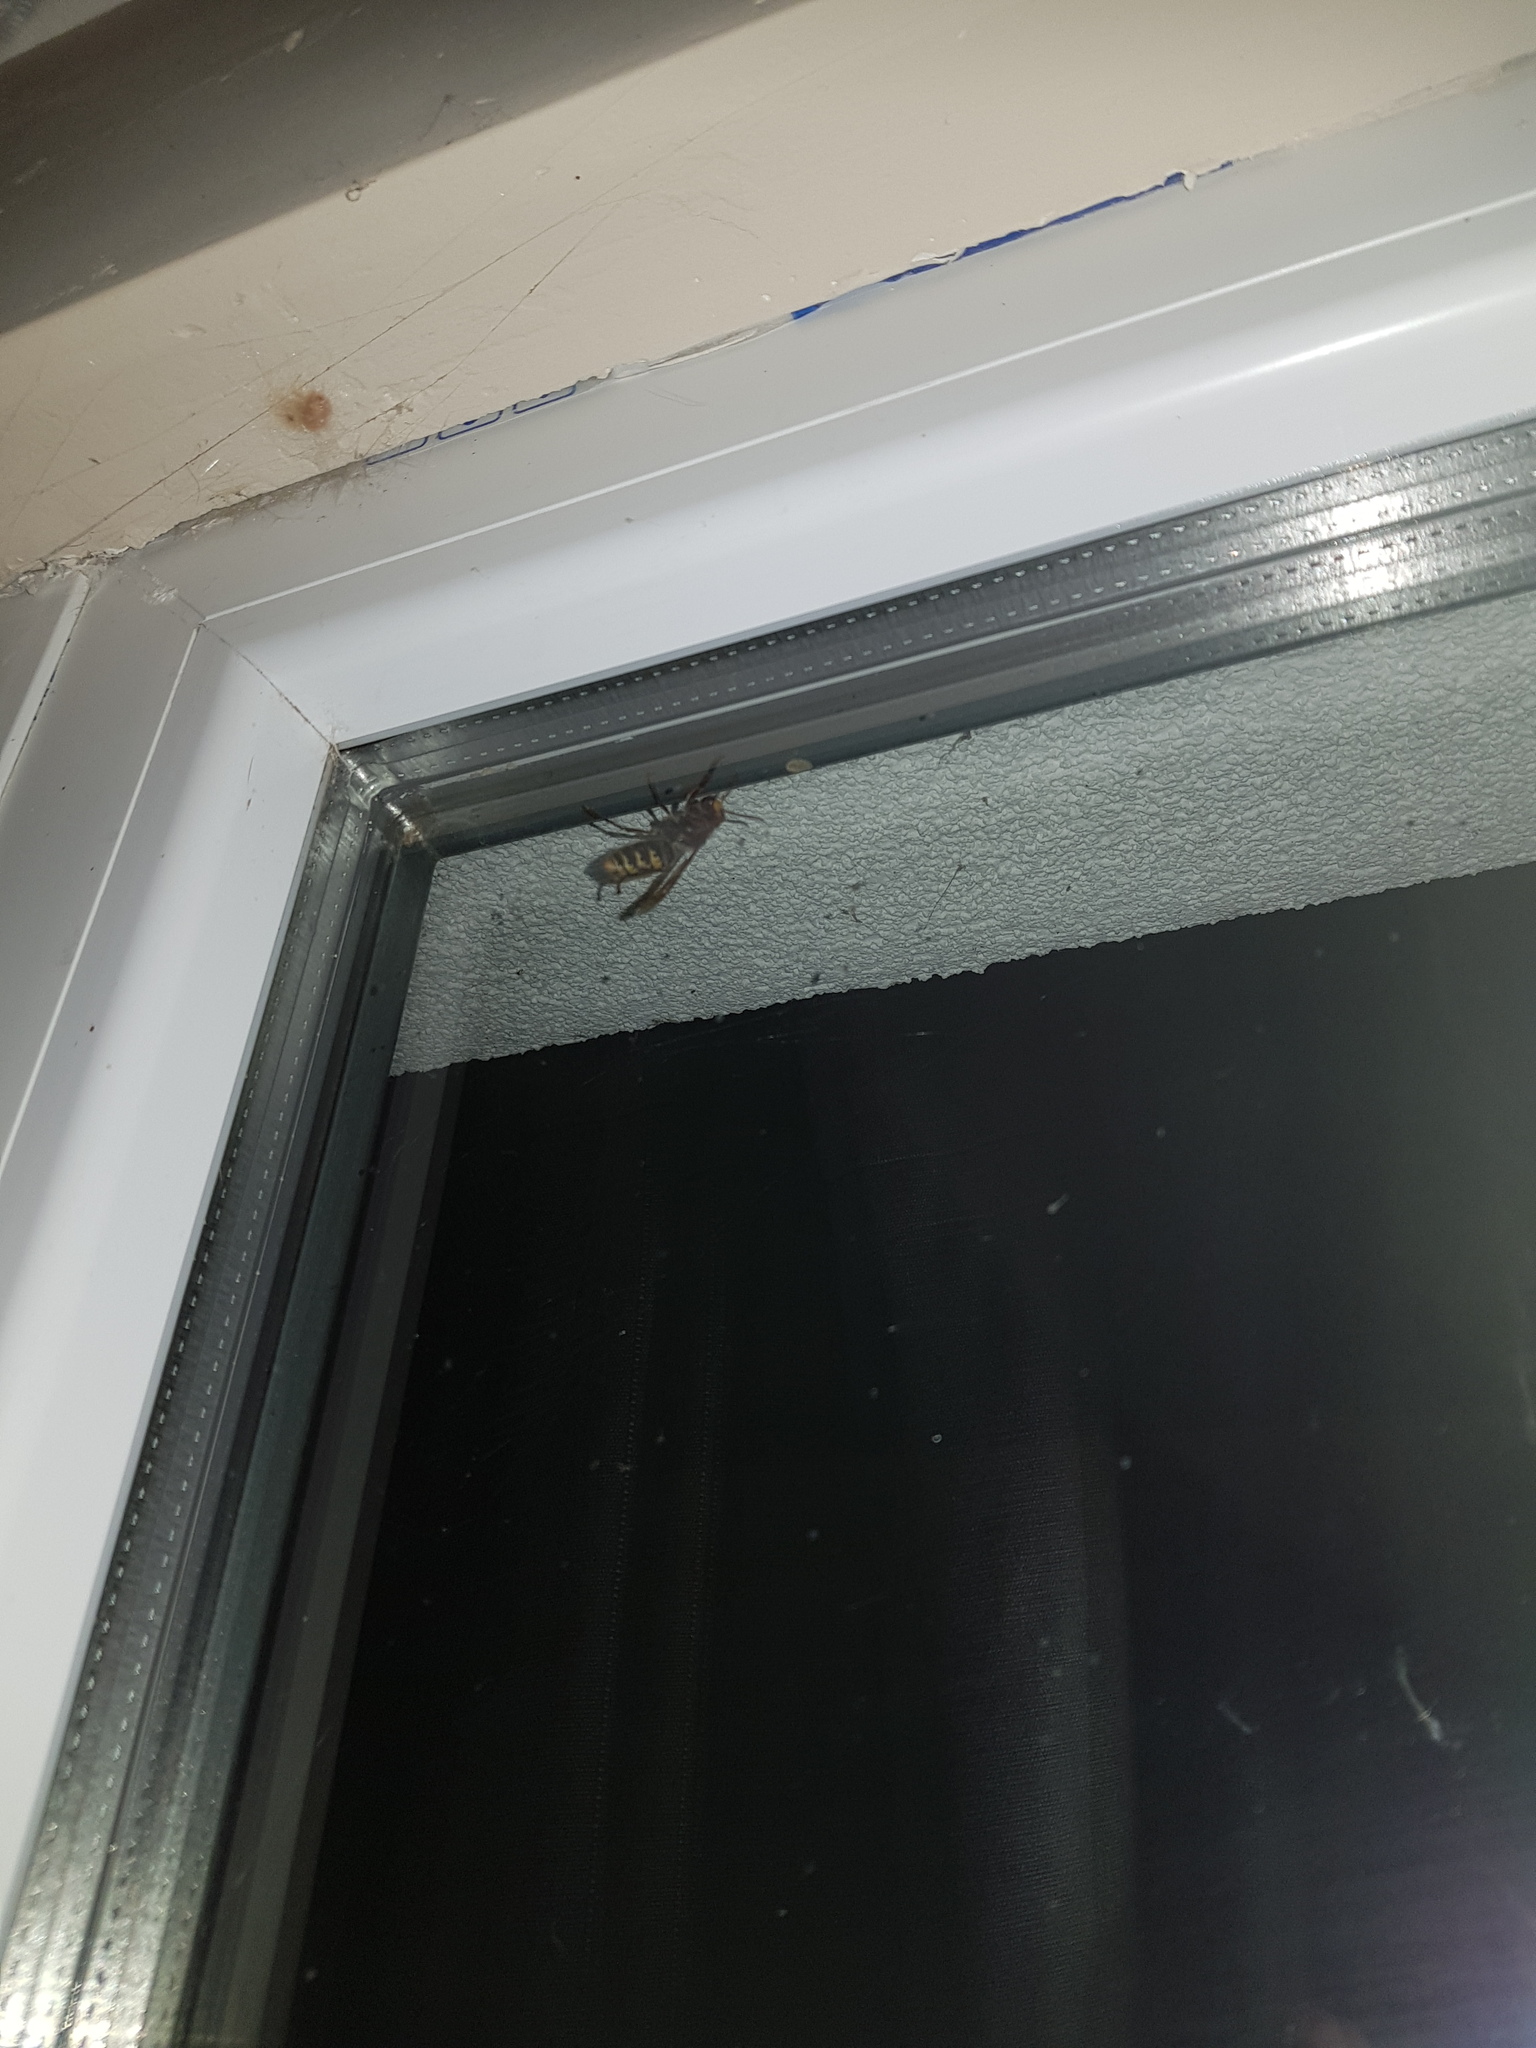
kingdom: Animalia
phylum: Arthropoda
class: Insecta
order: Hymenoptera
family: Vespidae
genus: Vespa
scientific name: Vespa crabro
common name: Hornet
